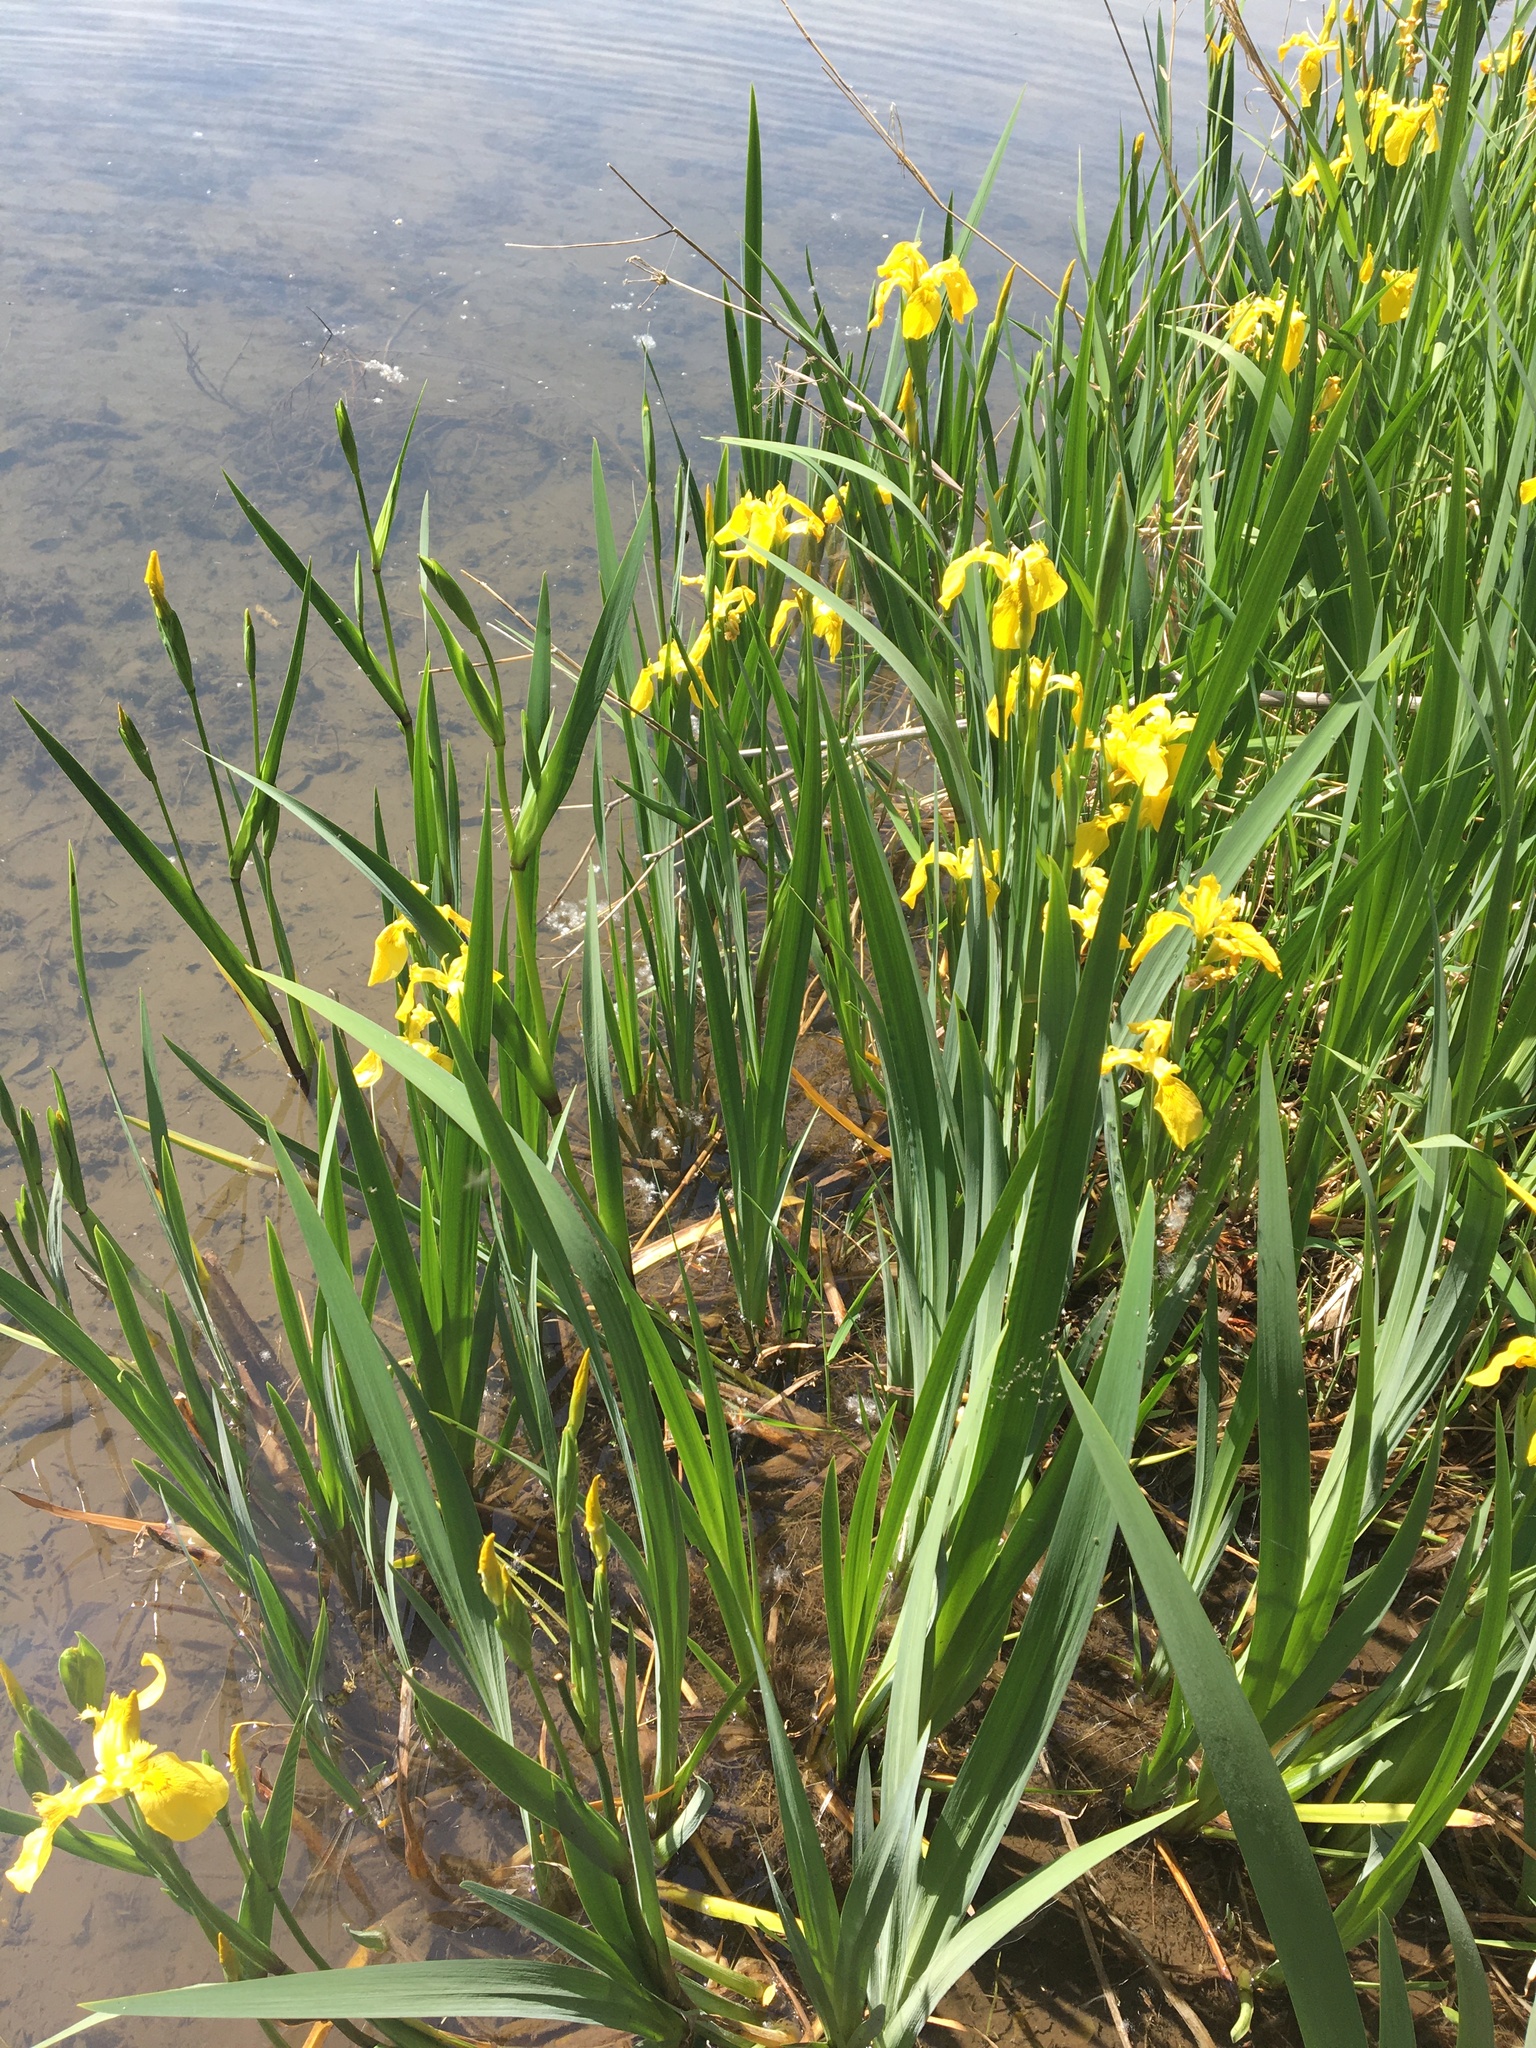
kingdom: Plantae
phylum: Tracheophyta
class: Liliopsida
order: Asparagales
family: Iridaceae
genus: Iris
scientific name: Iris pseudacorus
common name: Yellow flag
